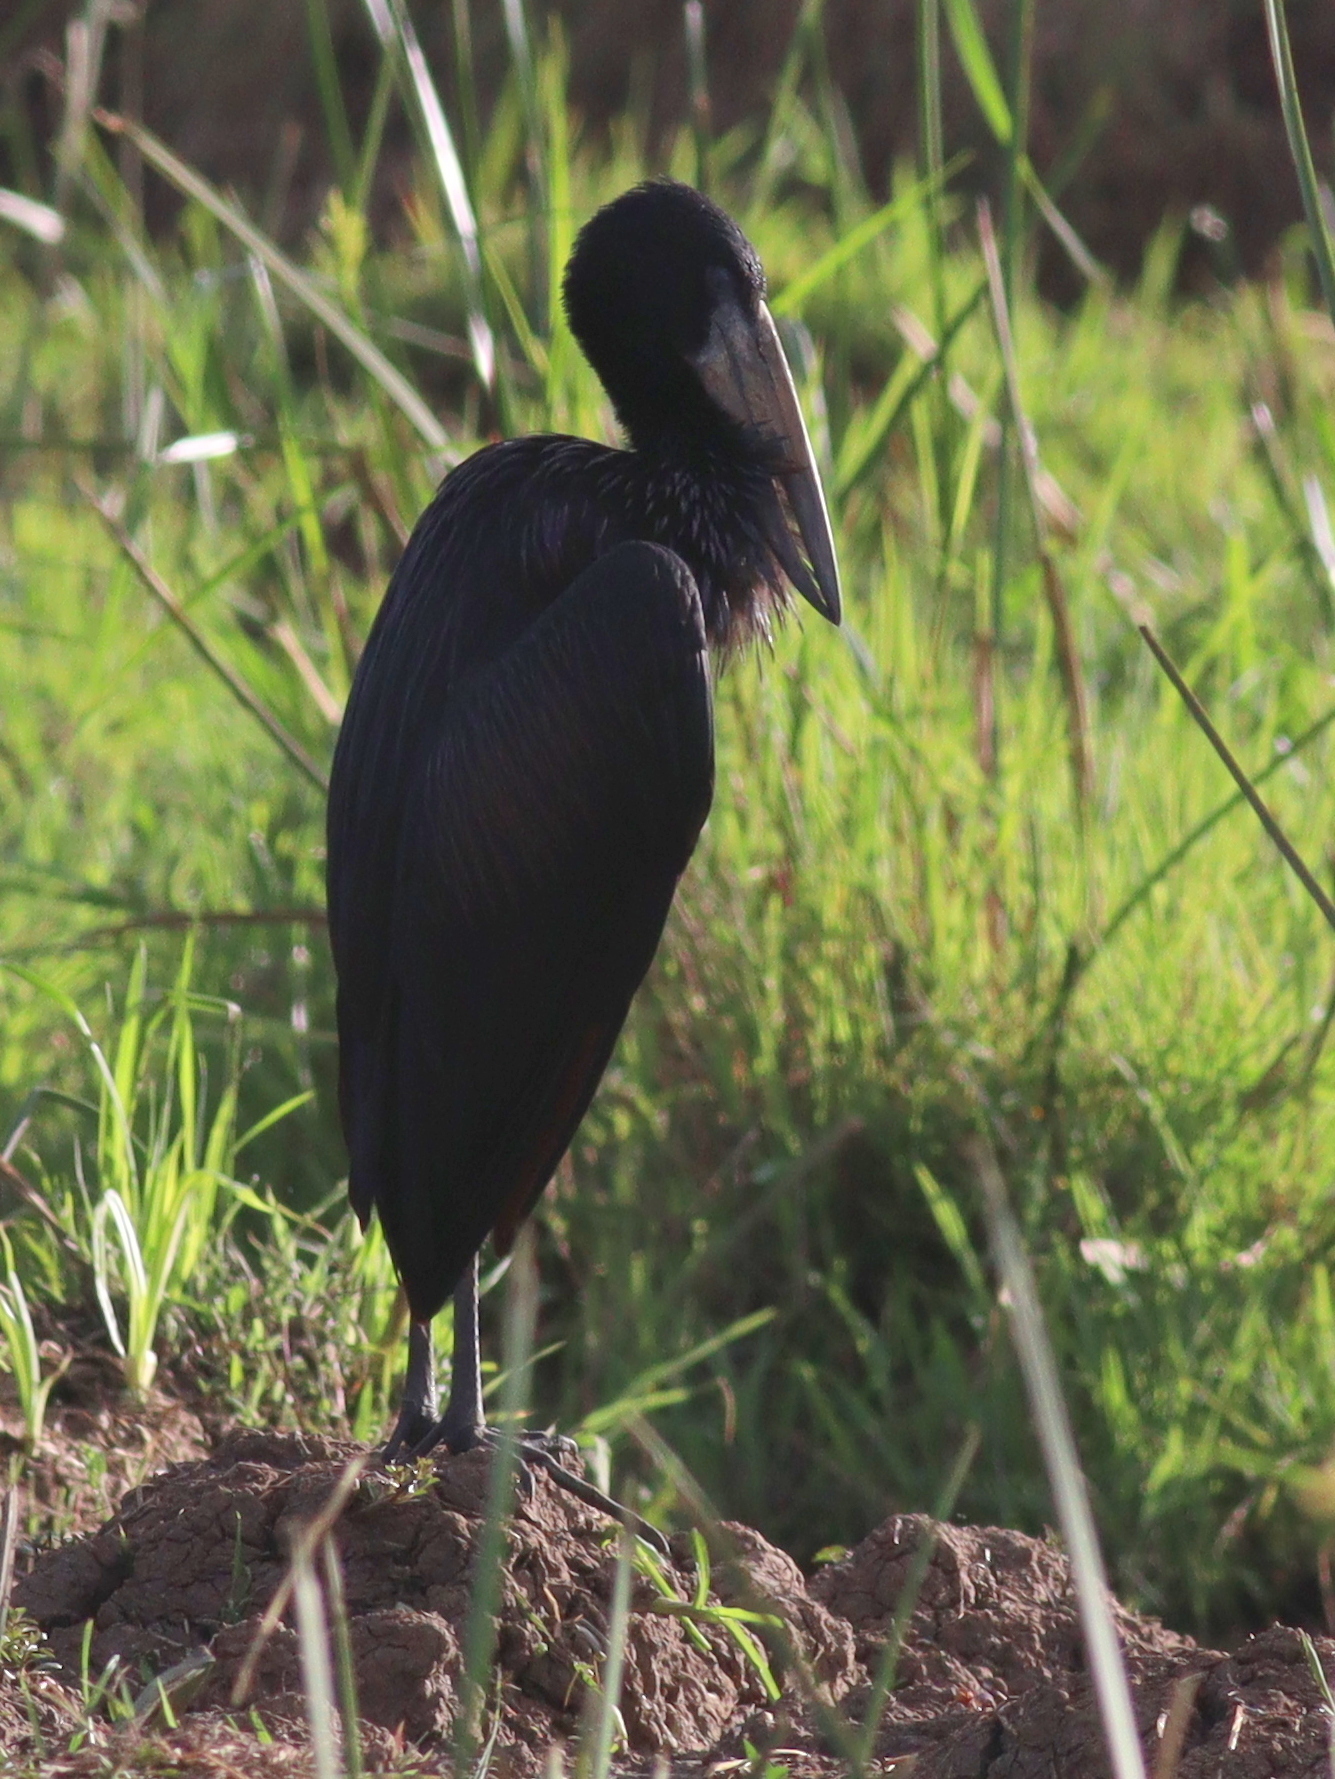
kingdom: Animalia
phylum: Chordata
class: Aves
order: Ciconiiformes
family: Ciconiidae
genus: Anastomus
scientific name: Anastomus lamelligerus
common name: African openbill
